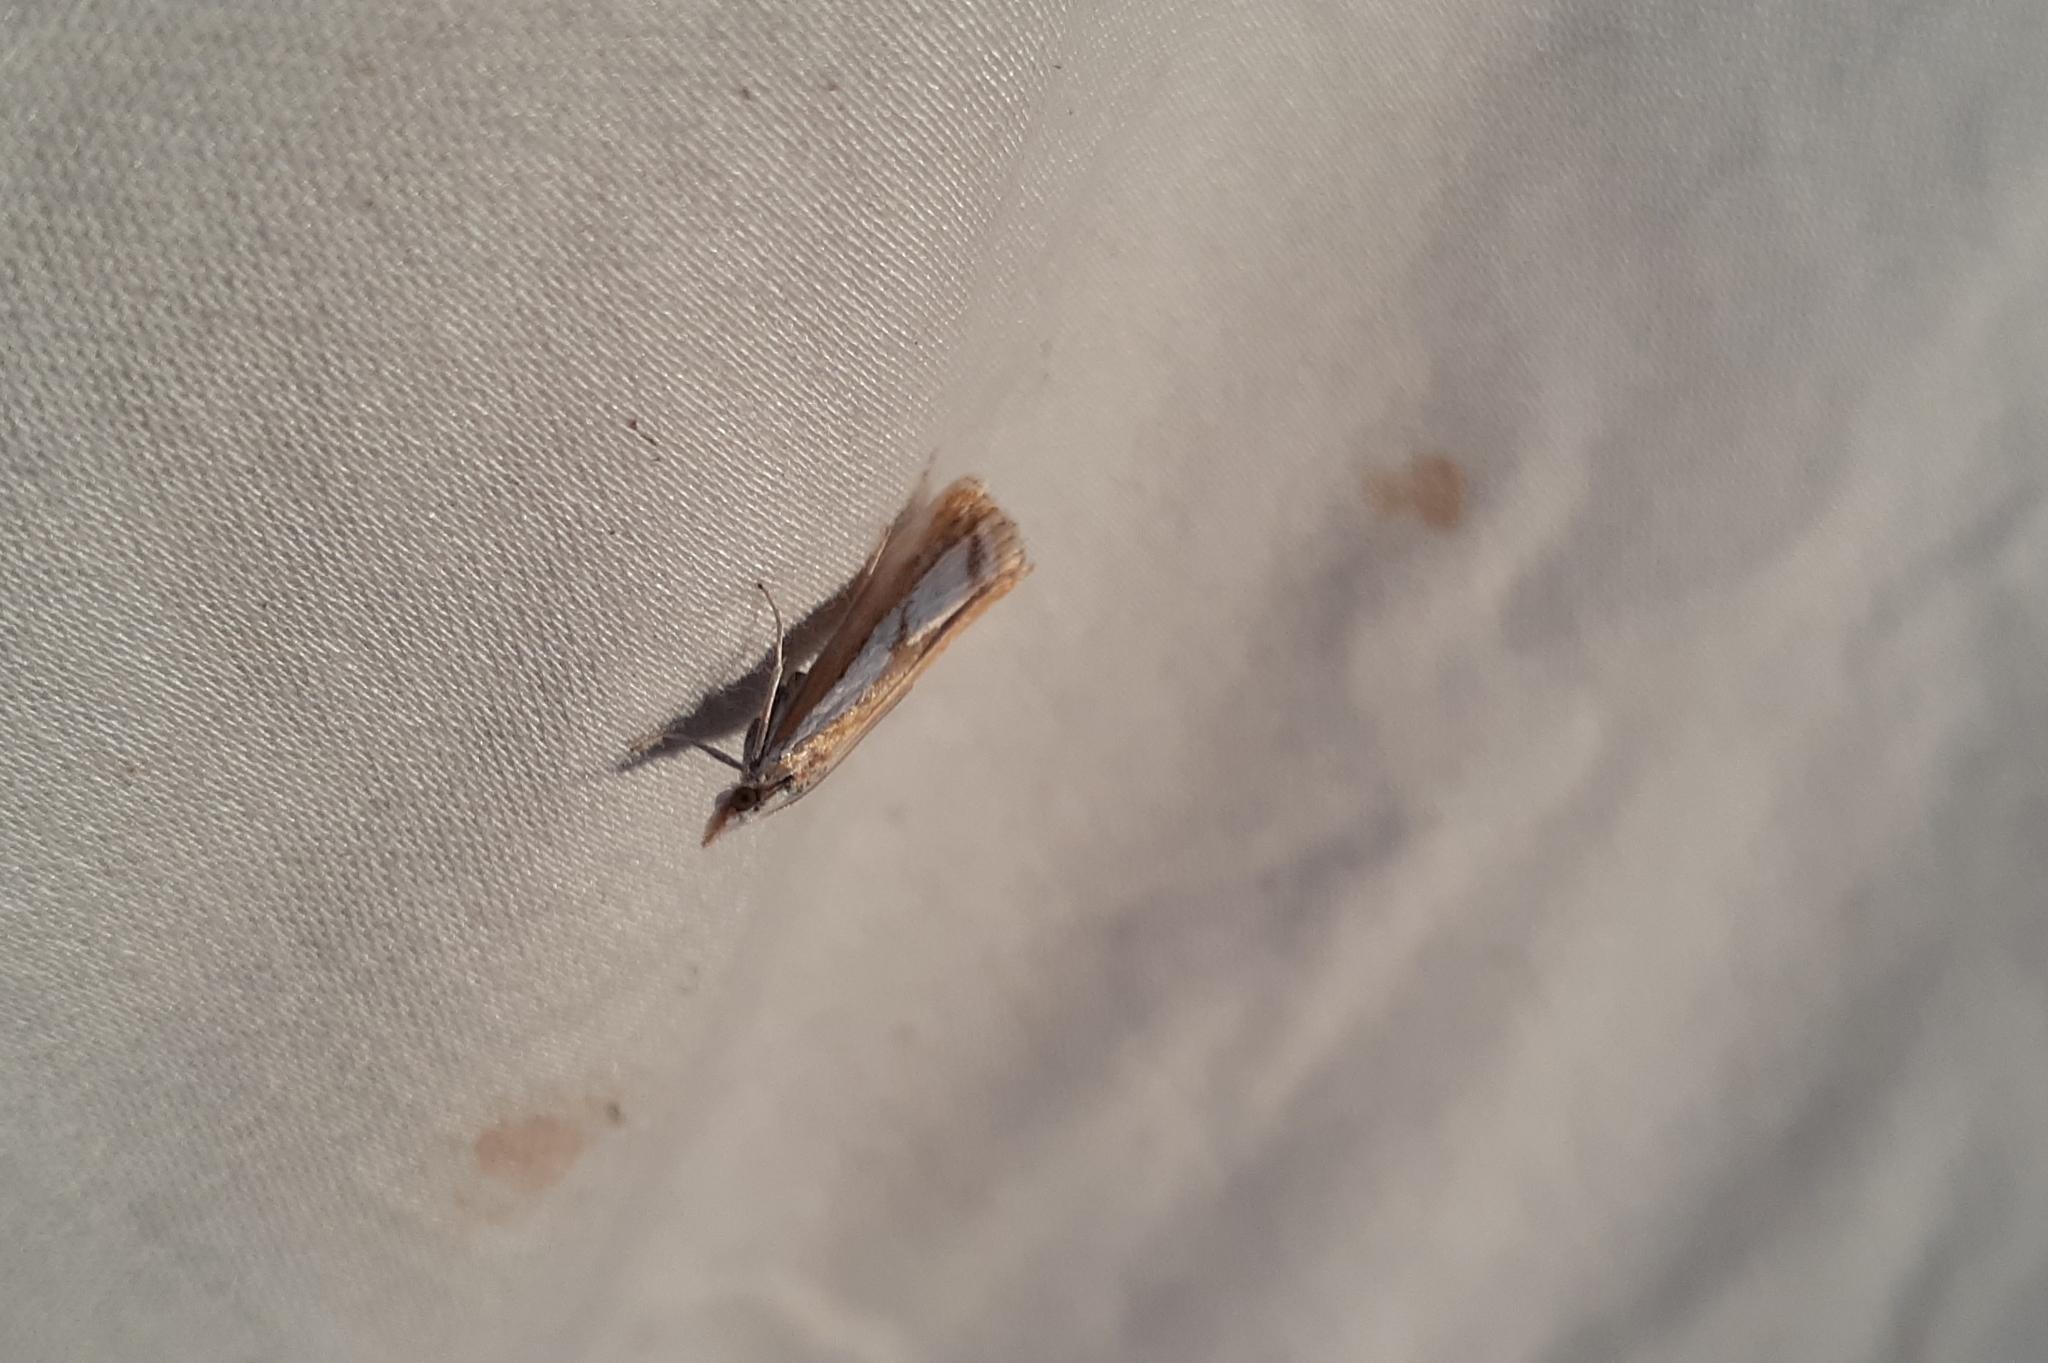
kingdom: Animalia
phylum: Arthropoda
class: Insecta
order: Lepidoptera
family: Crambidae
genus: Catoptria
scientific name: Catoptria latiradiellus
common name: Two-banded catoptria moth
